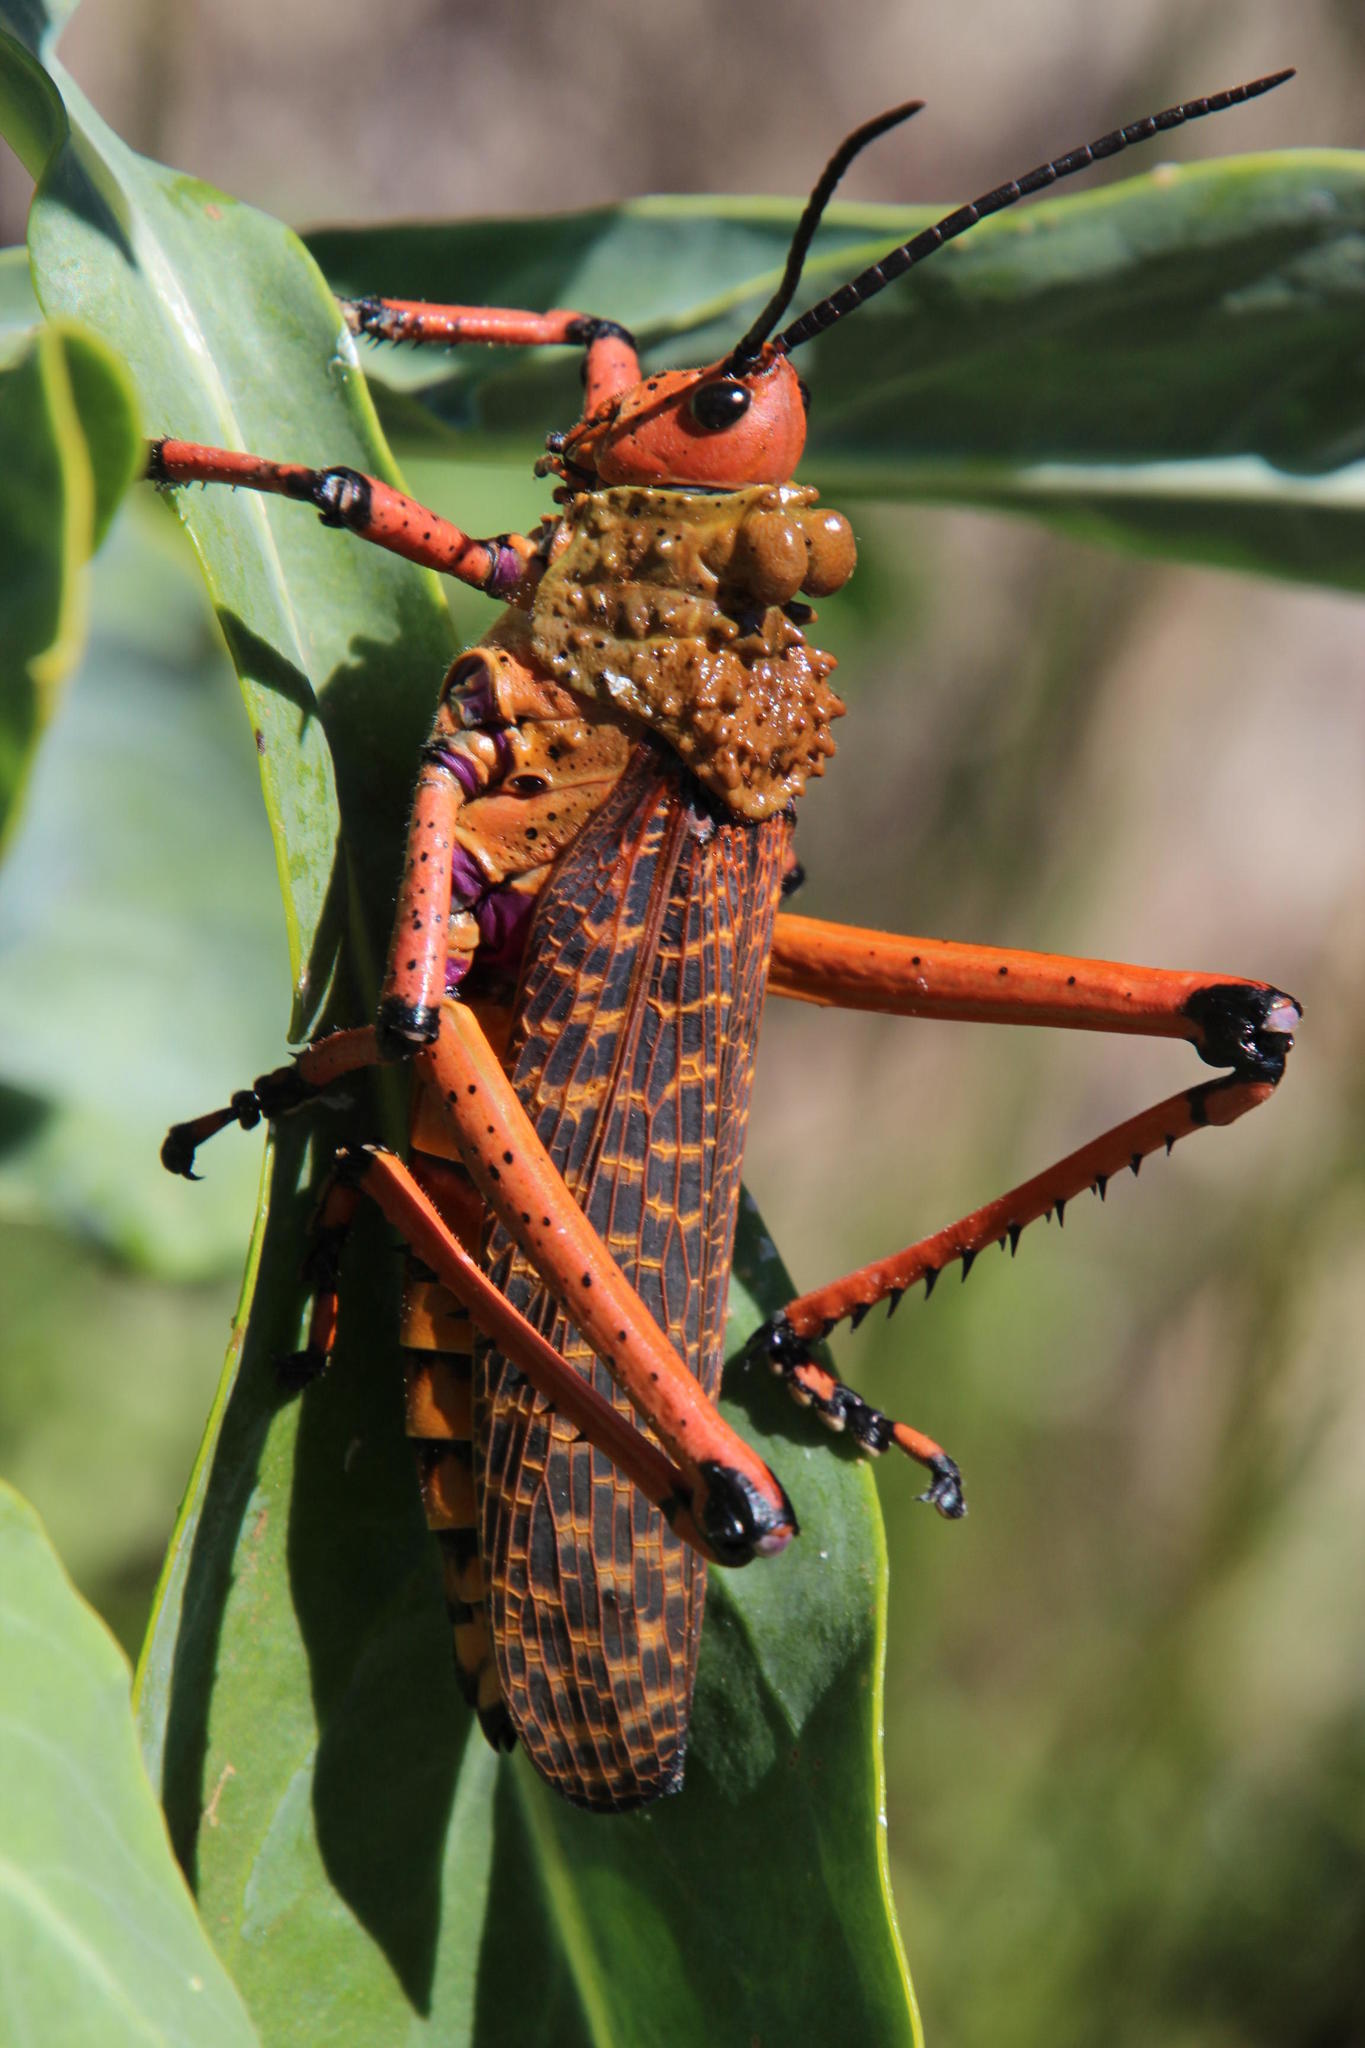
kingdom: Animalia
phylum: Arthropoda
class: Insecta
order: Orthoptera
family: Pyrgomorphidae
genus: Phymateus
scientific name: Phymateus leprosus
